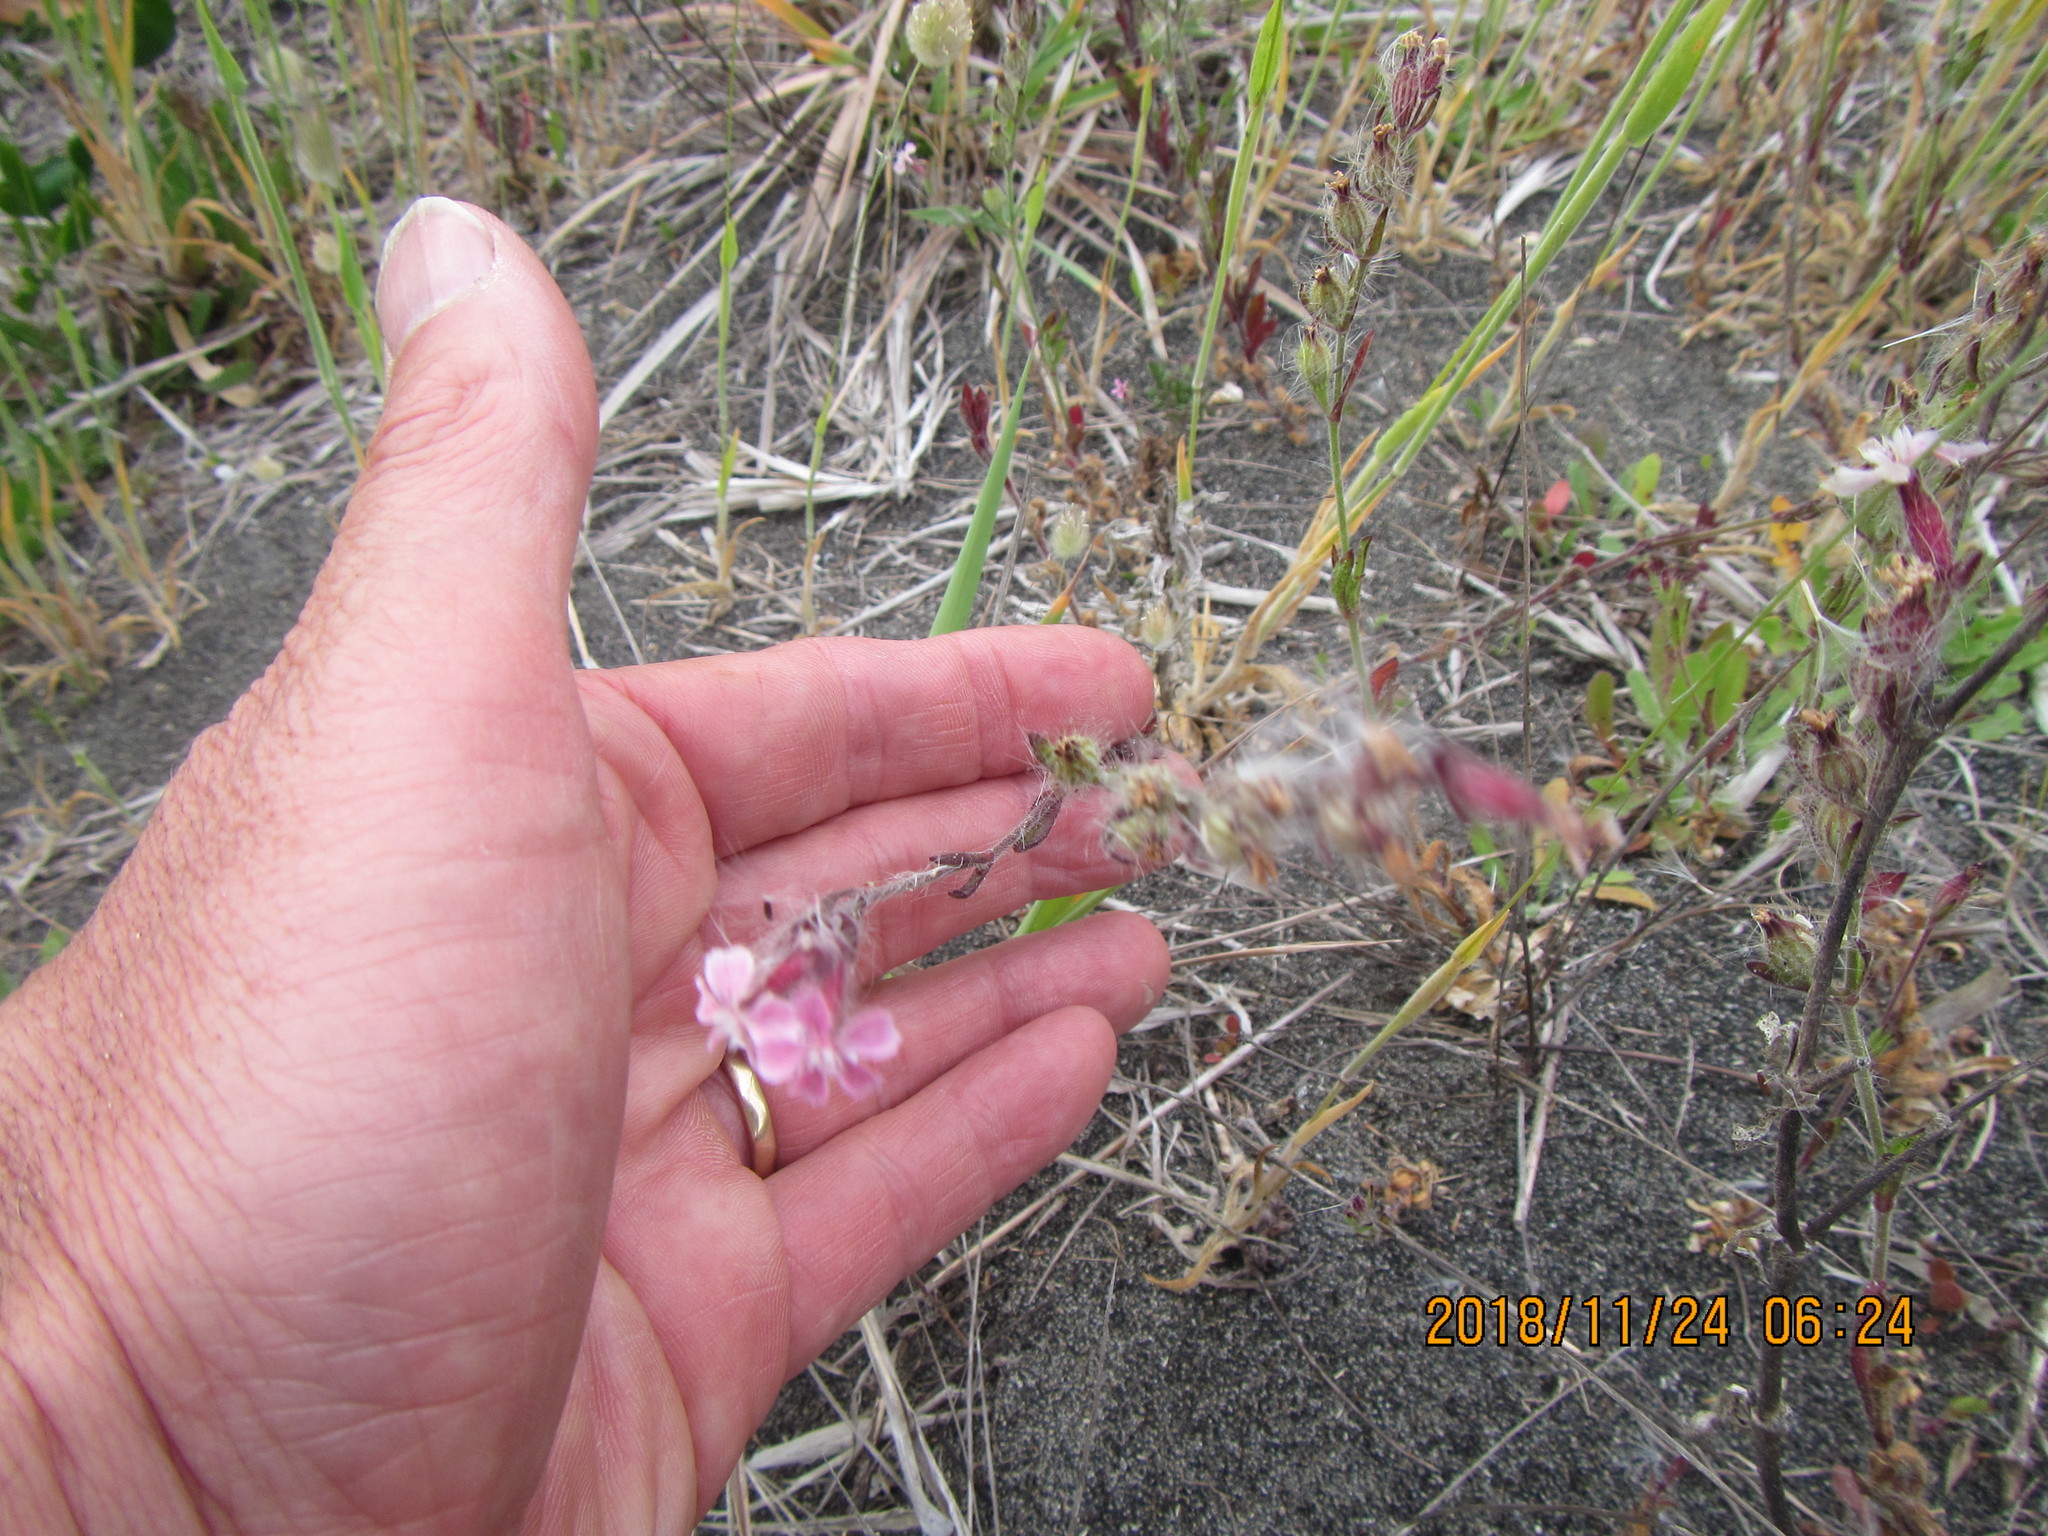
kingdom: Plantae
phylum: Tracheophyta
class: Magnoliopsida
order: Caryophyllales
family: Caryophyllaceae
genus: Silene
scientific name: Silene gallica
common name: Small-flowered catchfly
